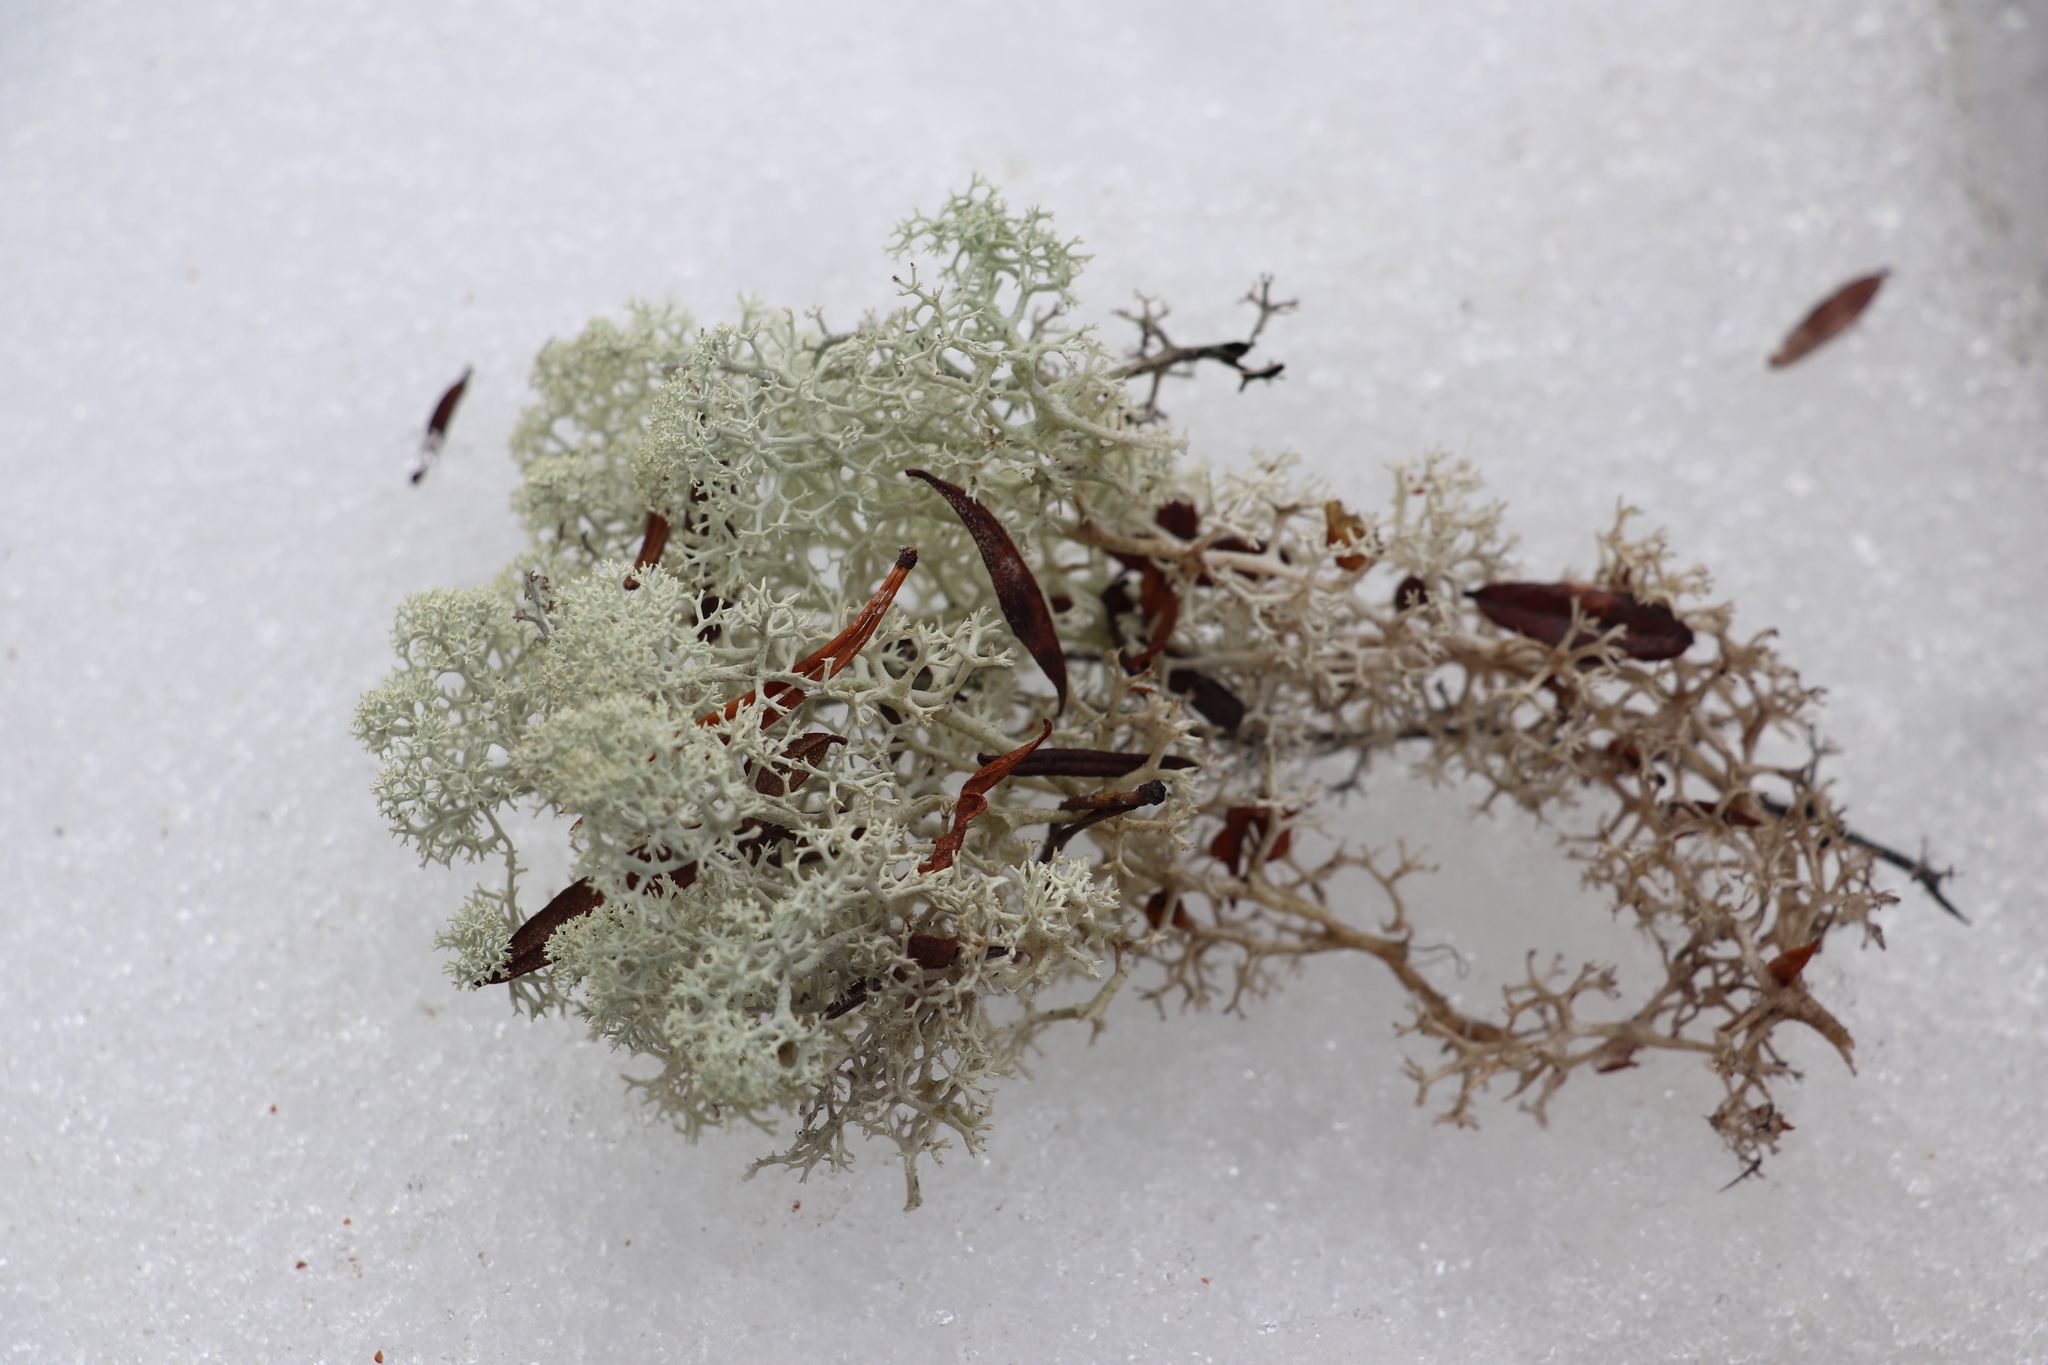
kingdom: Fungi
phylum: Ascomycota
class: Lecanoromycetes
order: Lecanorales
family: Cladoniaceae
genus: Cladonia
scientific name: Cladonia stellaris
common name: Star-tipped reindeer lichen
